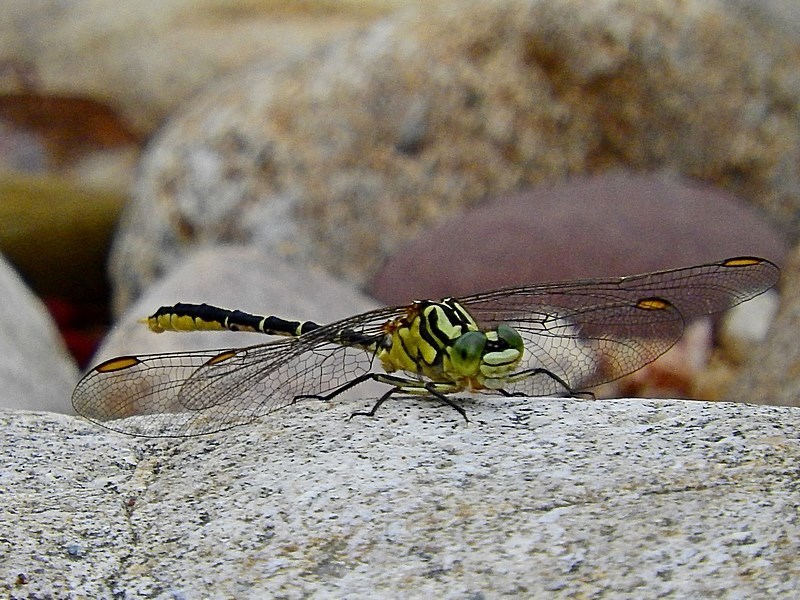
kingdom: Animalia
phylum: Arthropoda
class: Insecta
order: Odonata
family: Gomphidae
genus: Austrogomphus
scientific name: Austrogomphus guerini
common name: Yellow-striped hunter
